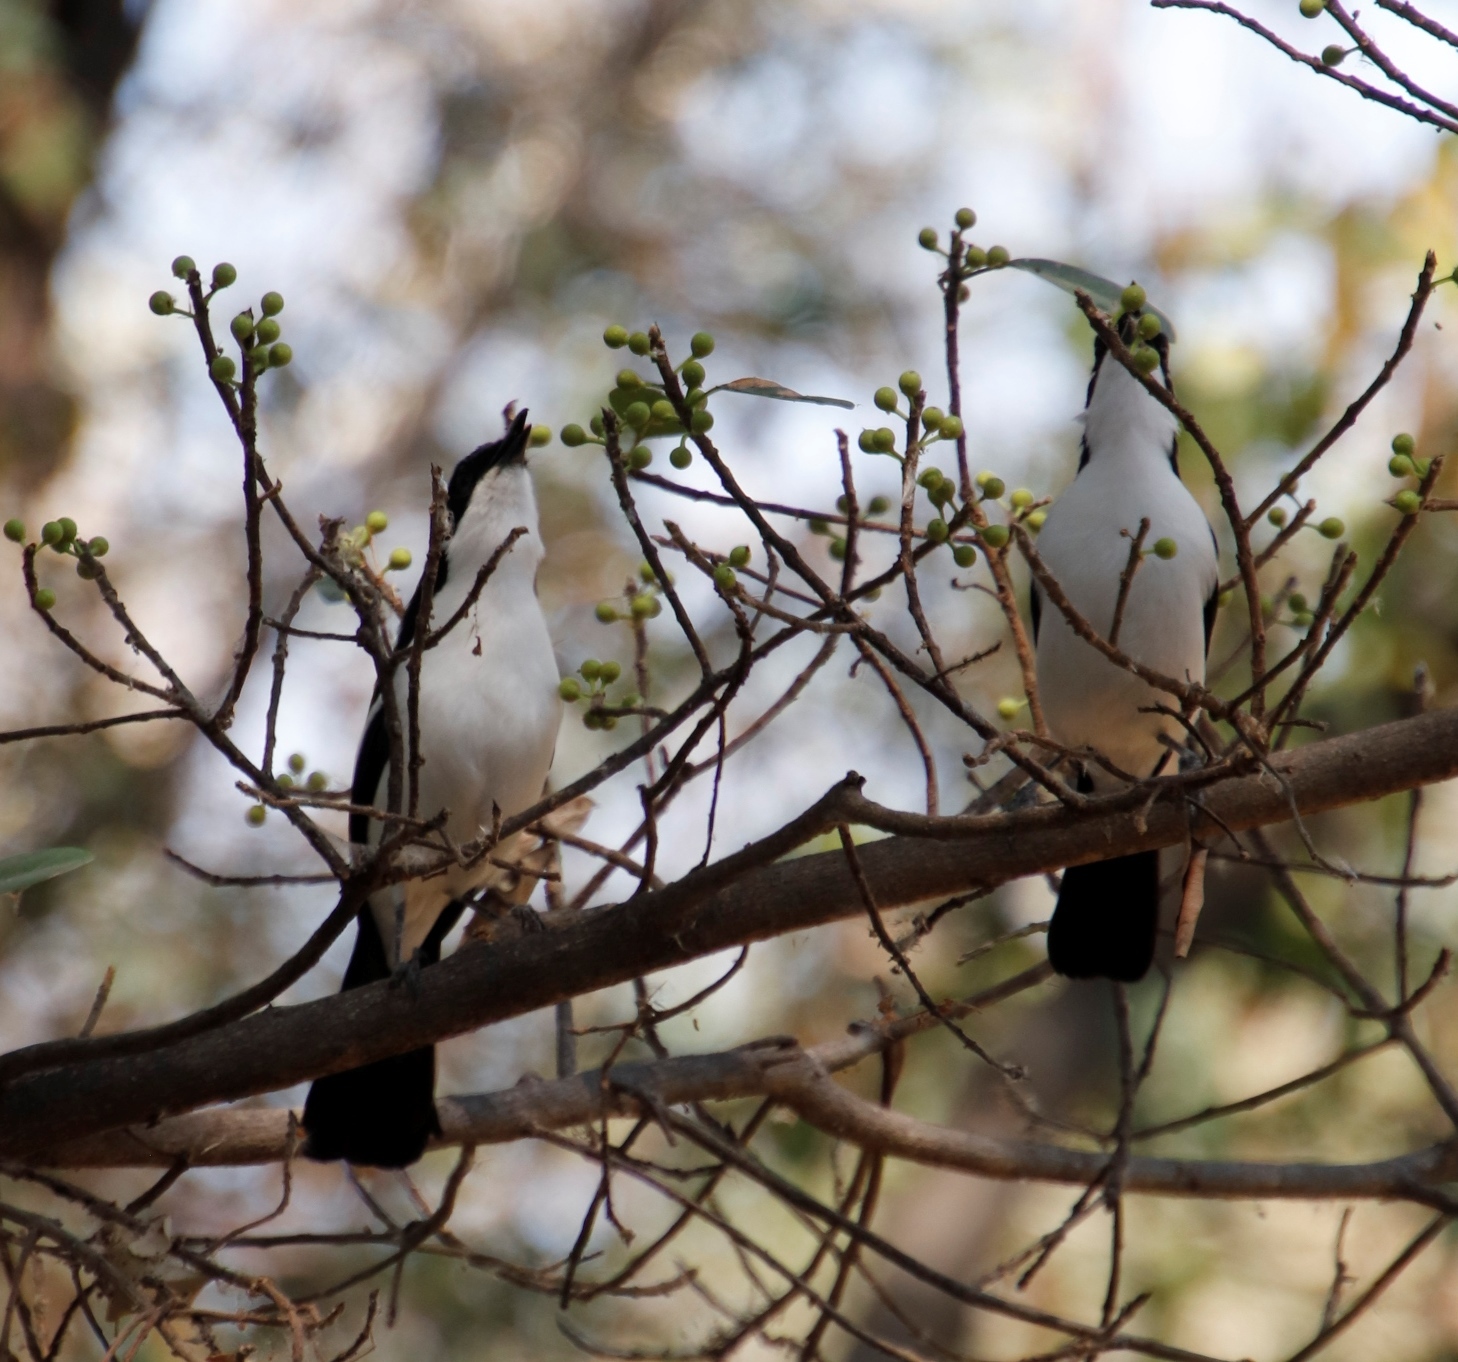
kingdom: Animalia
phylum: Chordata
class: Aves
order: Passeriformes
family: Malaconotidae
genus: Laniarius
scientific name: Laniarius bicolor
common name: Swamp boubou
